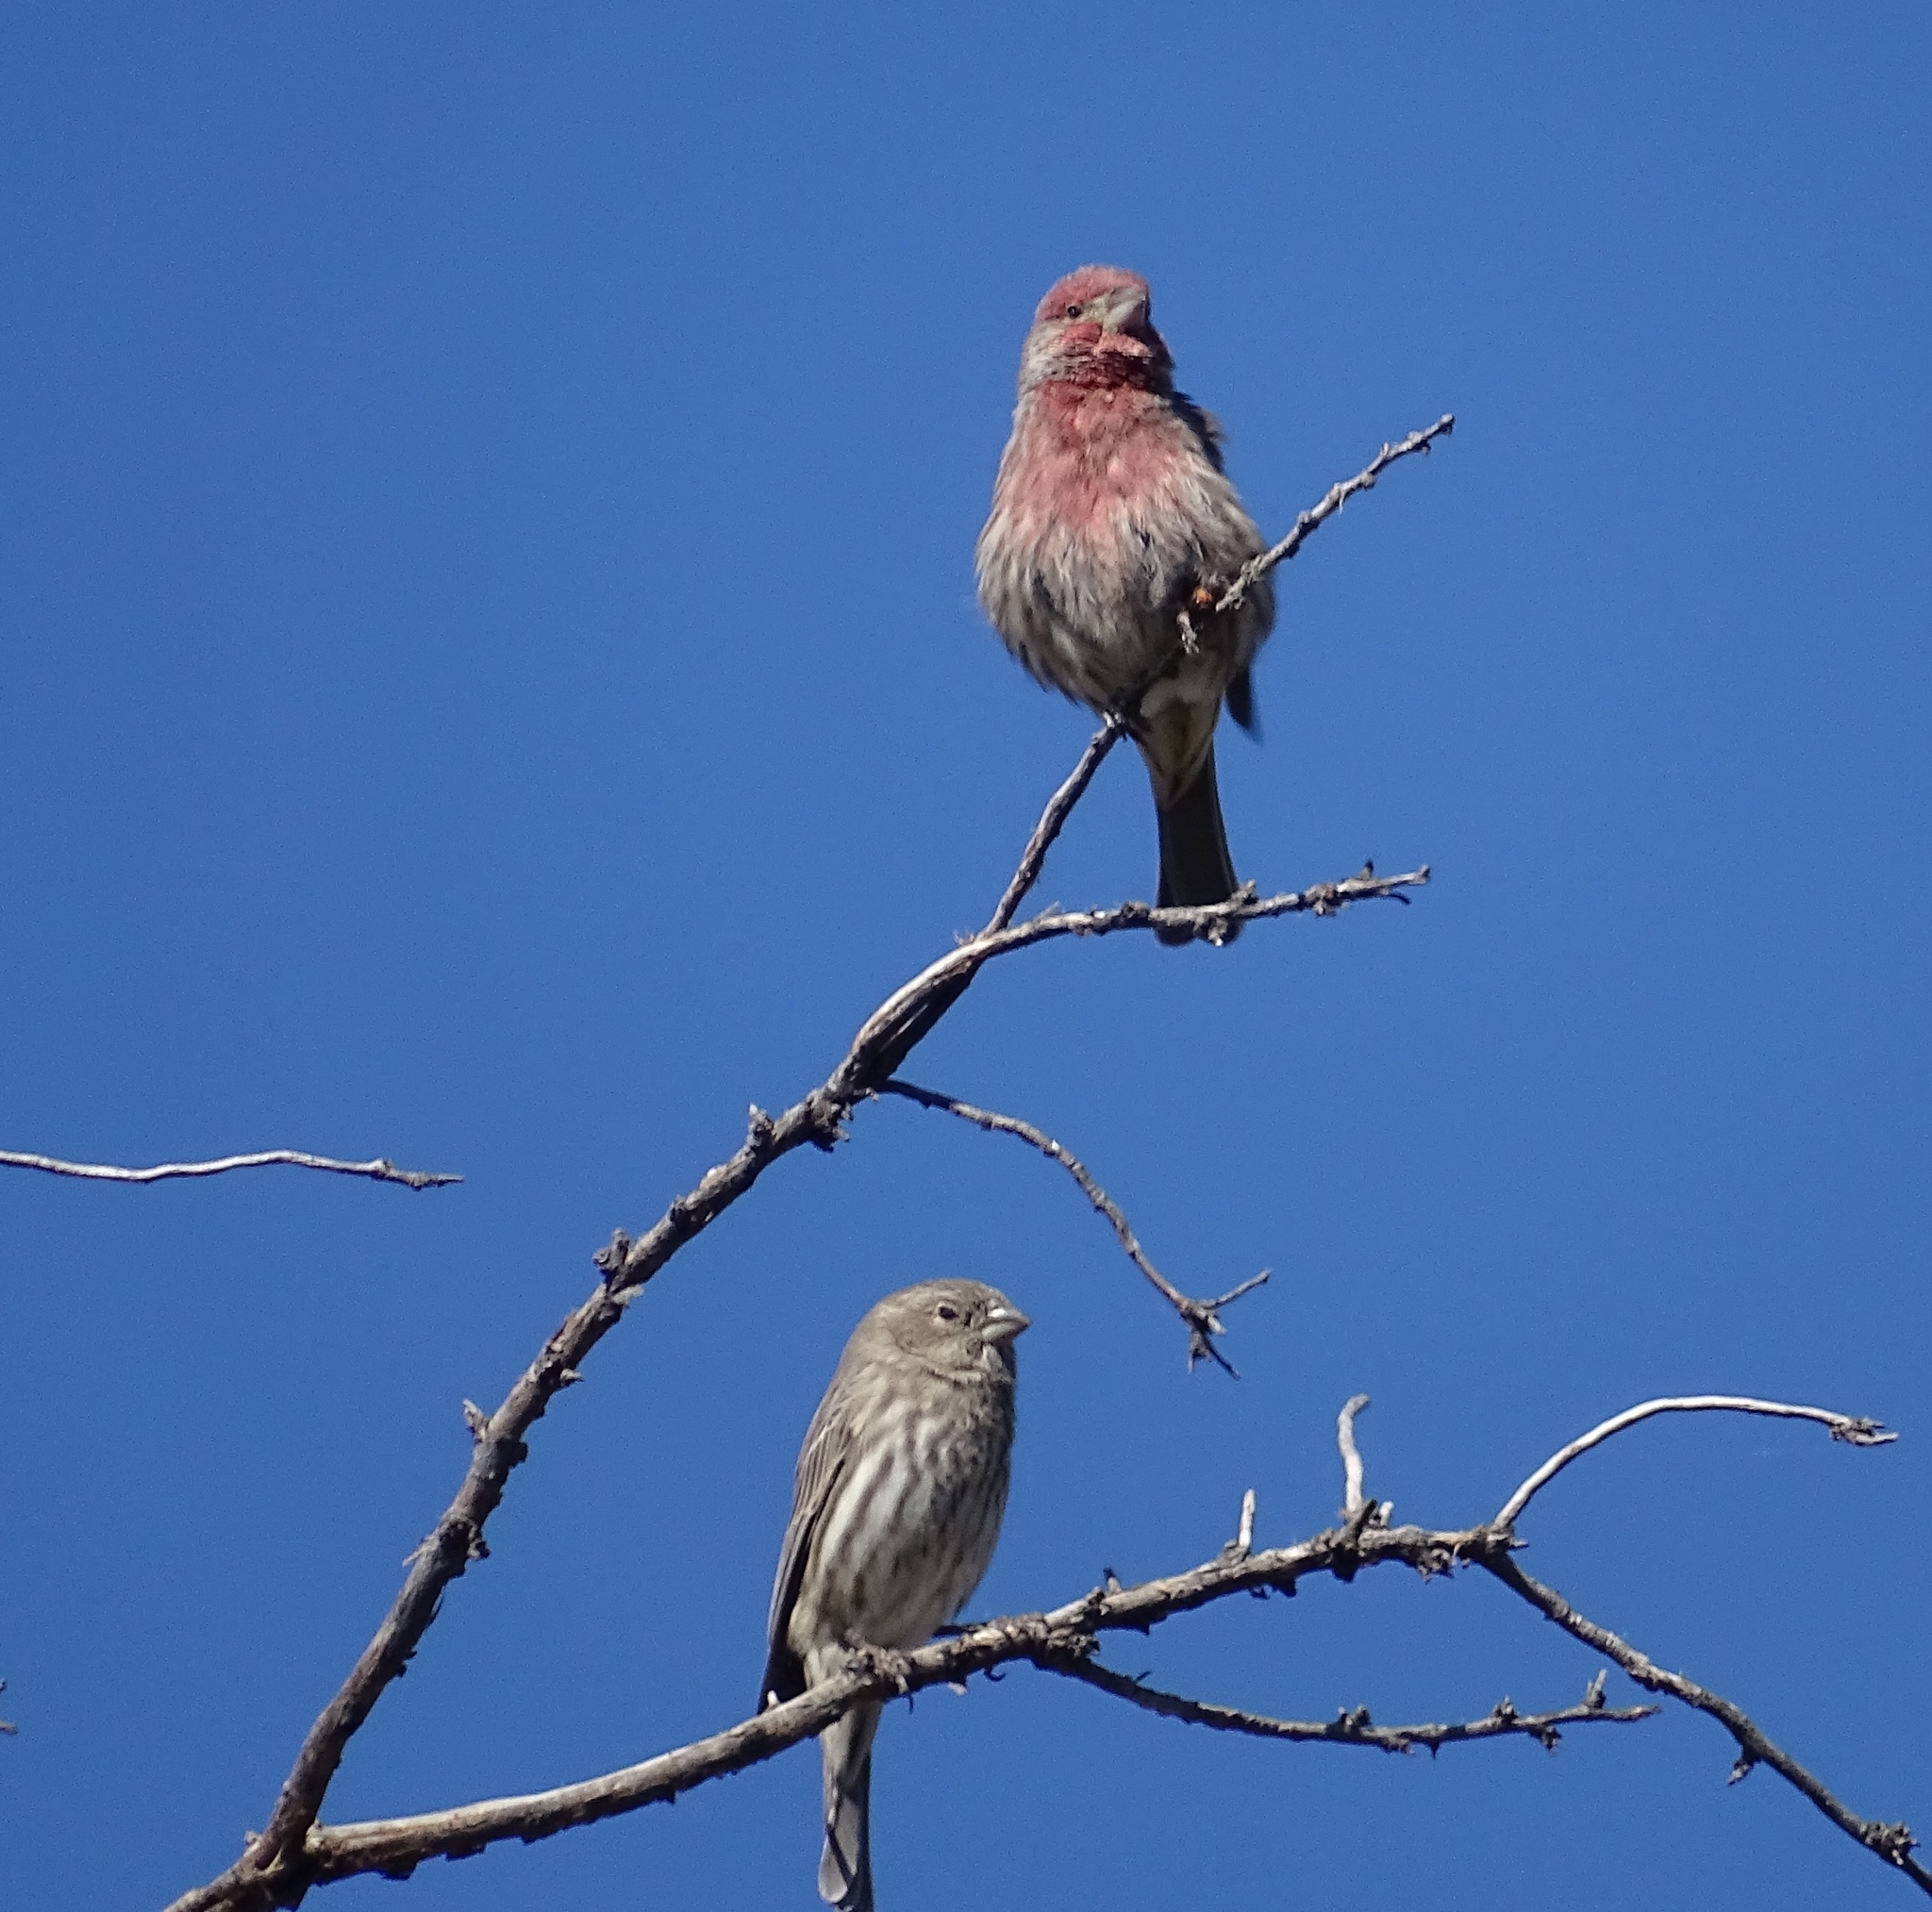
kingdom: Animalia
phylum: Chordata
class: Aves
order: Passeriformes
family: Fringillidae
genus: Haemorhous
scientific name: Haemorhous mexicanus
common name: House finch
